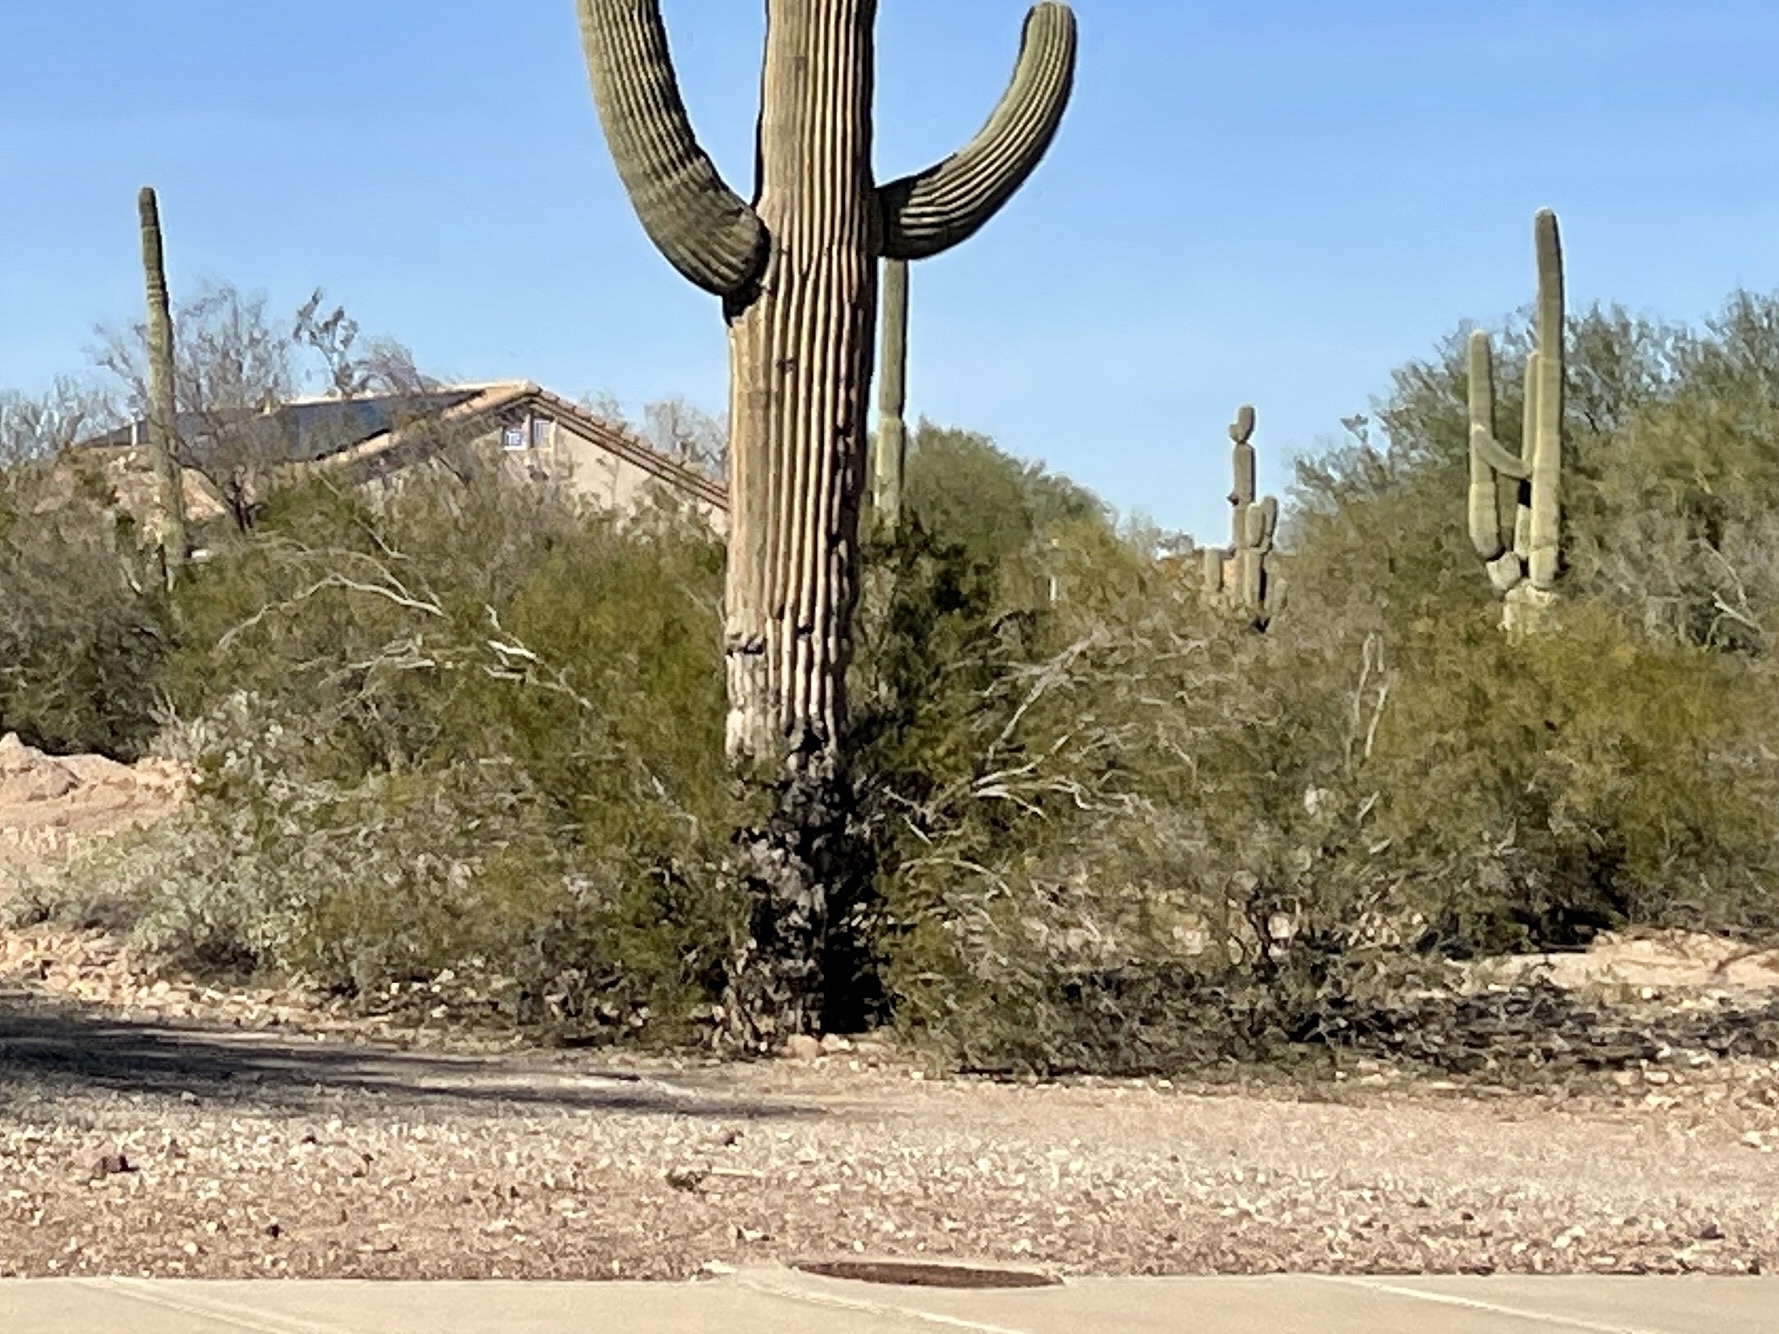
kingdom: Plantae
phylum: Tracheophyta
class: Magnoliopsida
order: Caryophyllales
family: Cactaceae
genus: Carnegiea
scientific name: Carnegiea gigantea
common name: Saguaro
